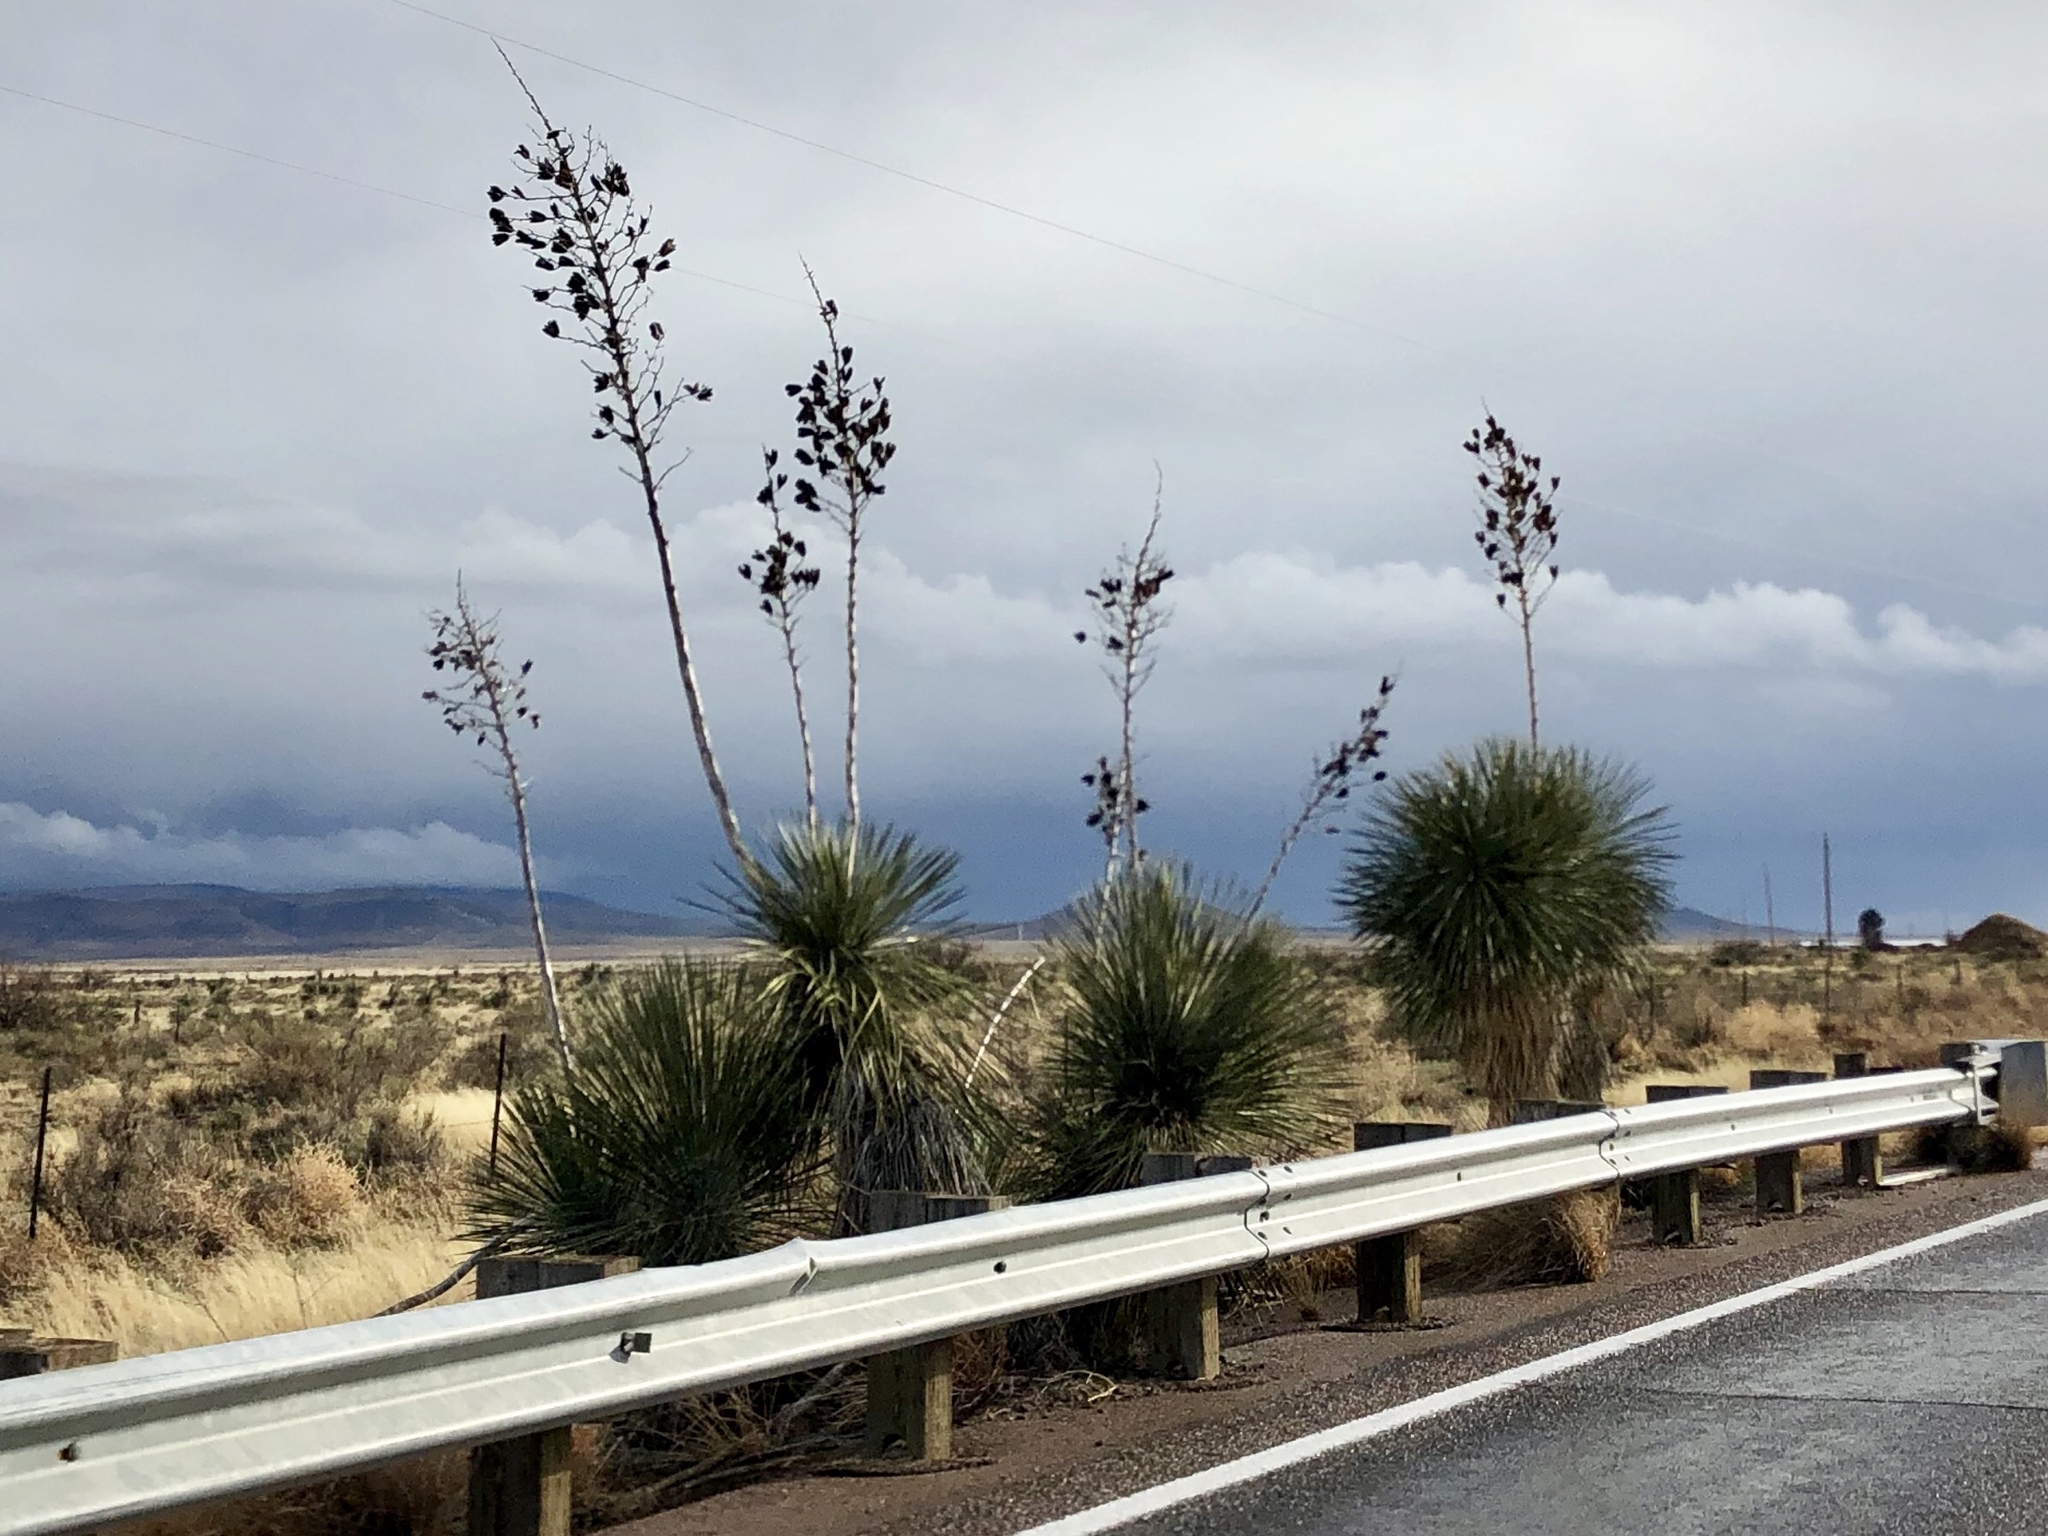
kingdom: Plantae
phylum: Tracheophyta
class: Liliopsida
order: Asparagales
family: Asparagaceae
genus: Yucca
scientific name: Yucca elata
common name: Palmella
